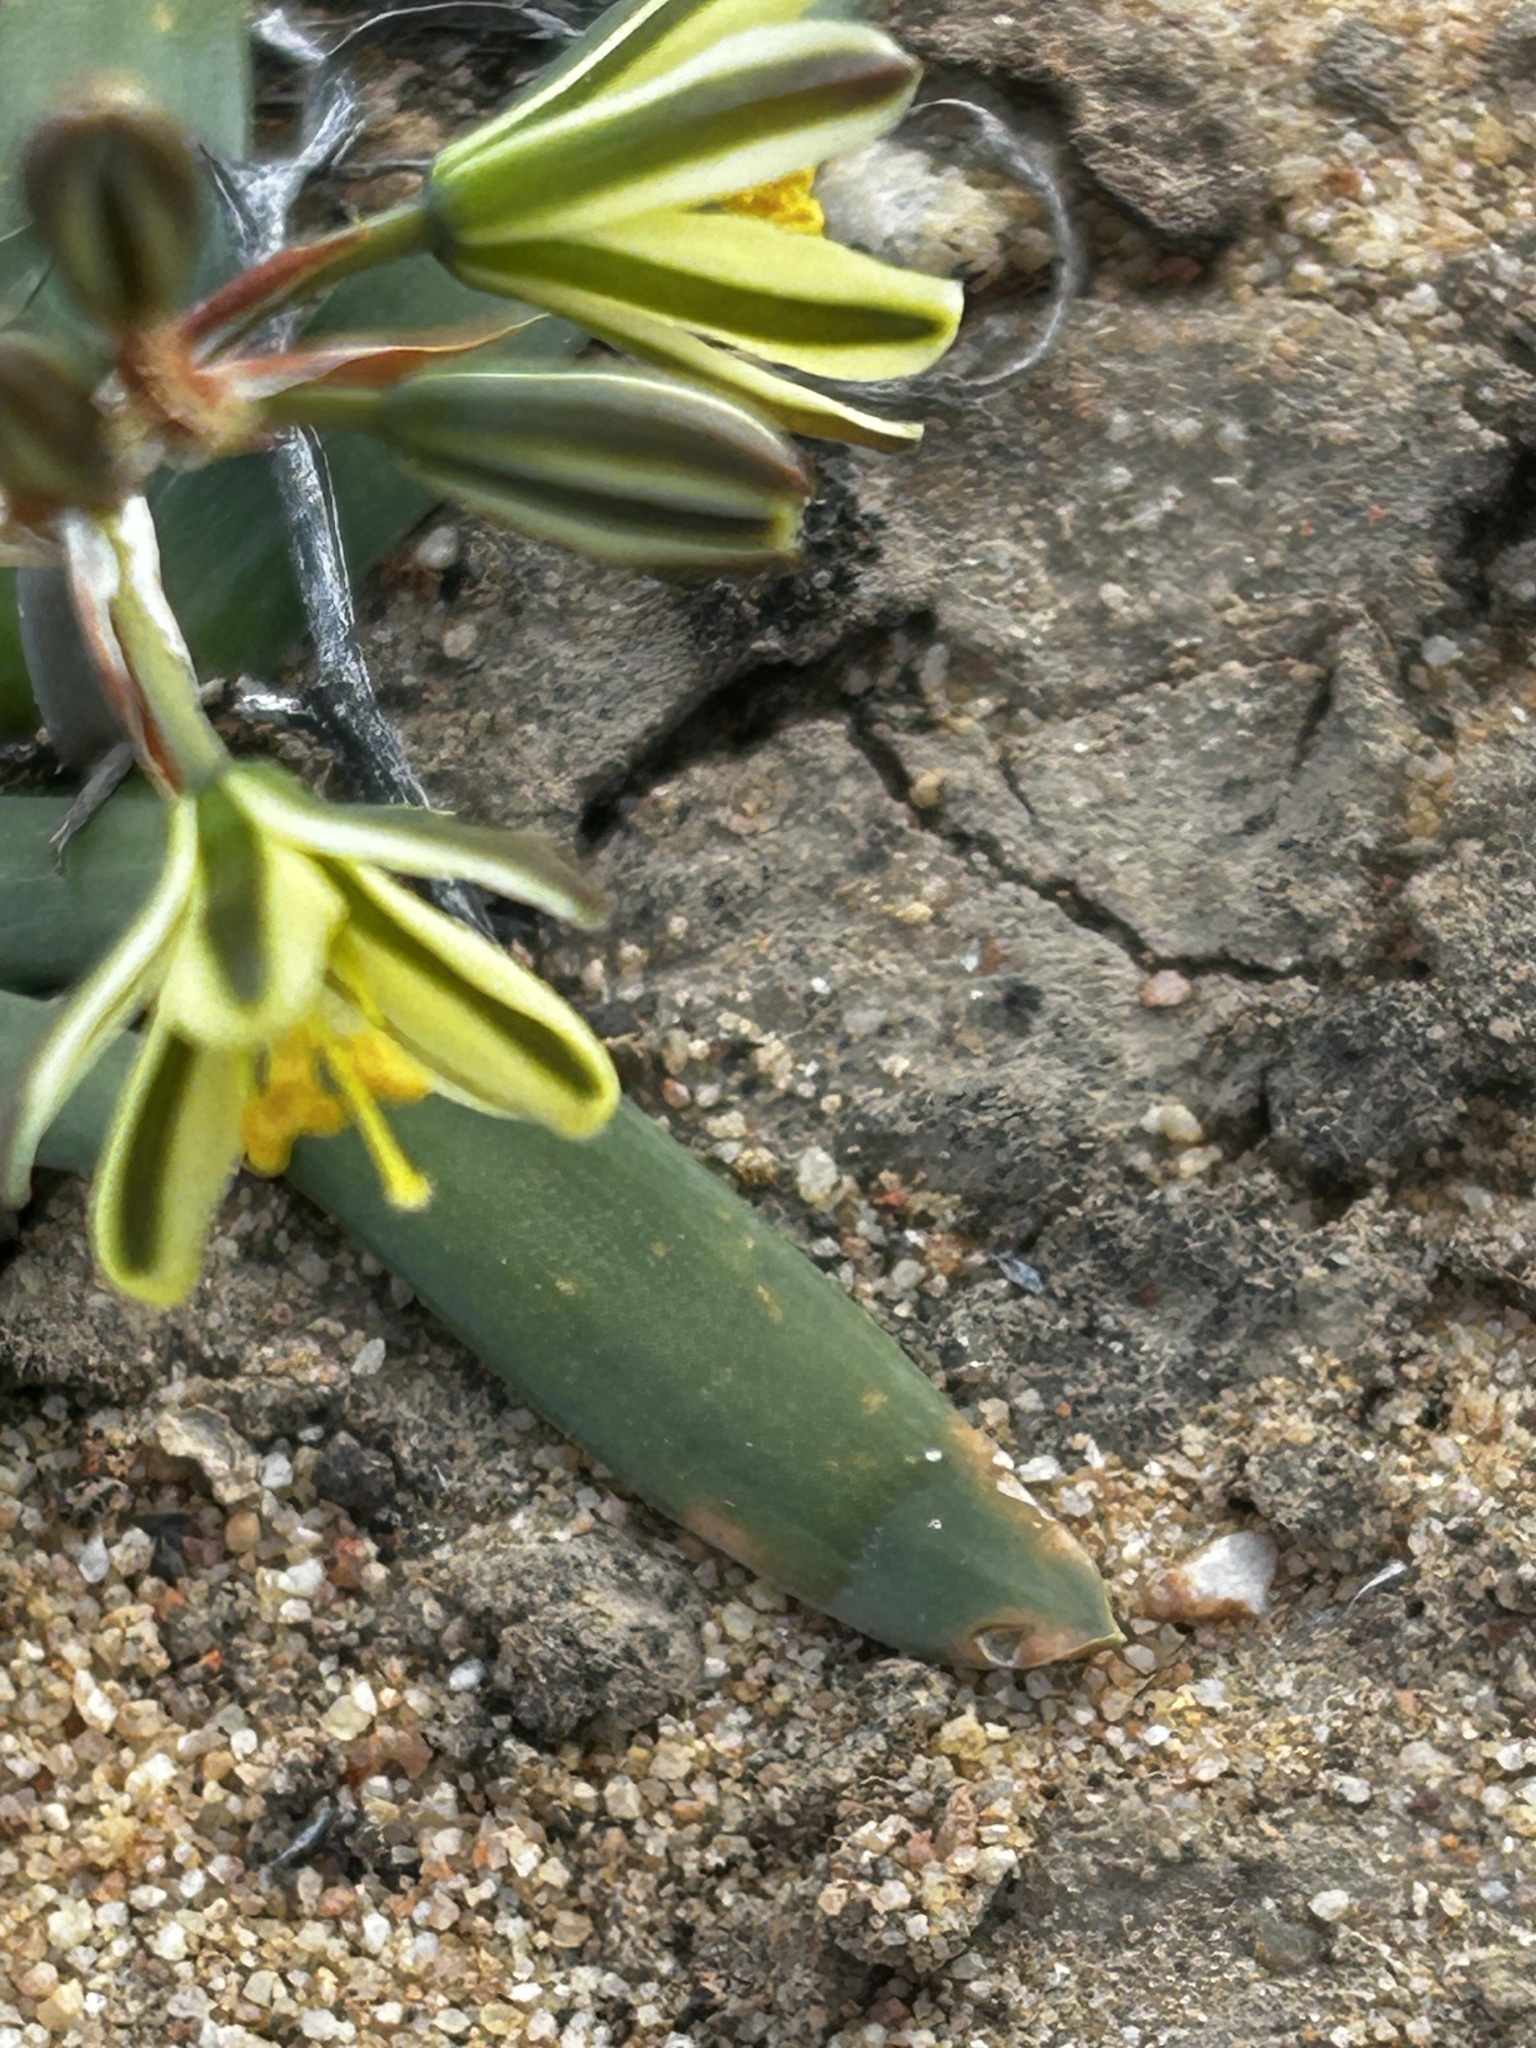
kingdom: Plantae
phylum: Tracheophyta
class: Liliopsida
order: Asparagales
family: Asparagaceae
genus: Albuca
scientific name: Albuca secunda
